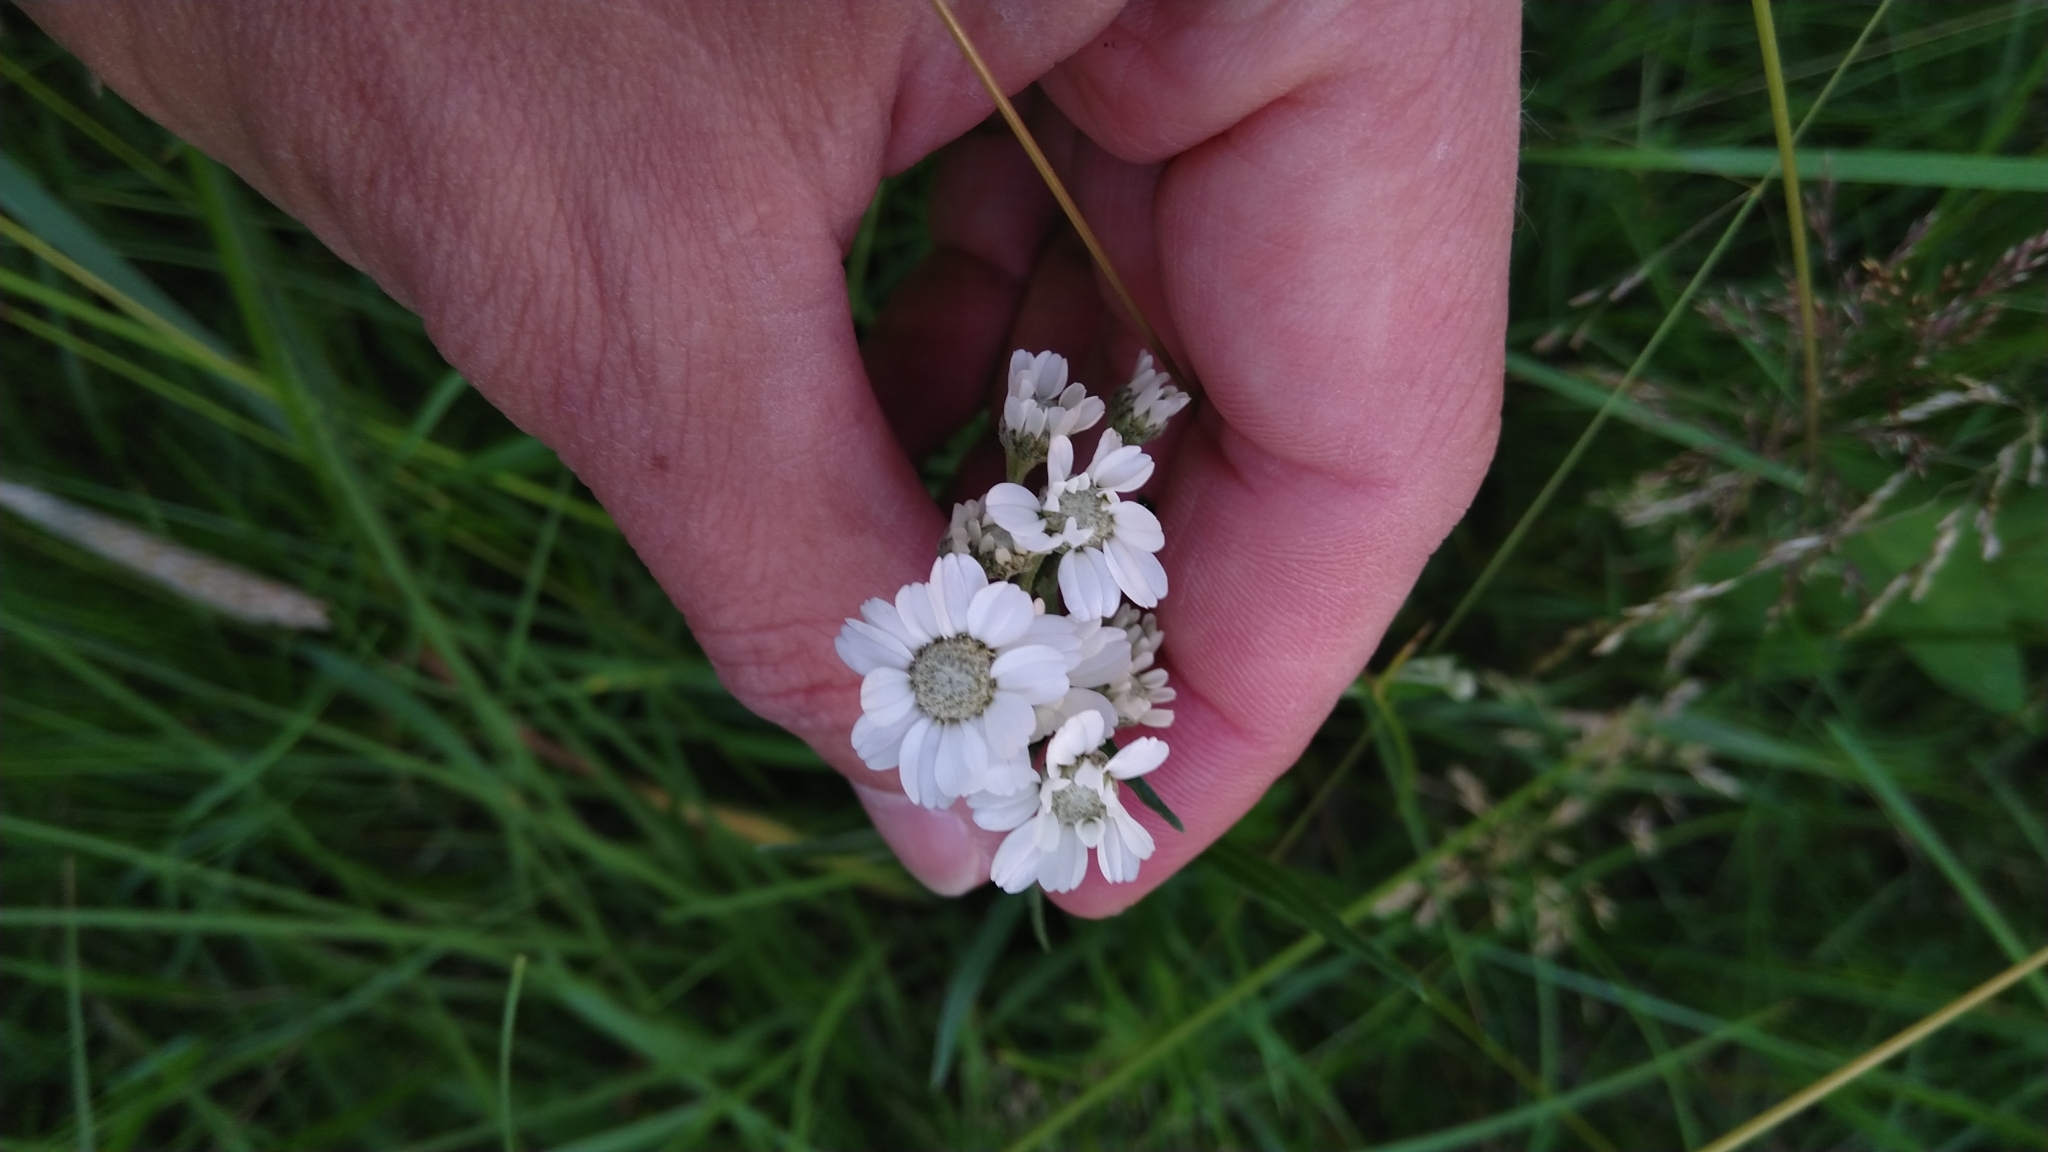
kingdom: Plantae
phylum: Tracheophyta
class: Magnoliopsida
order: Asterales
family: Asteraceae
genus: Achillea
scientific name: Achillea ptarmica
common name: Sneezeweed
